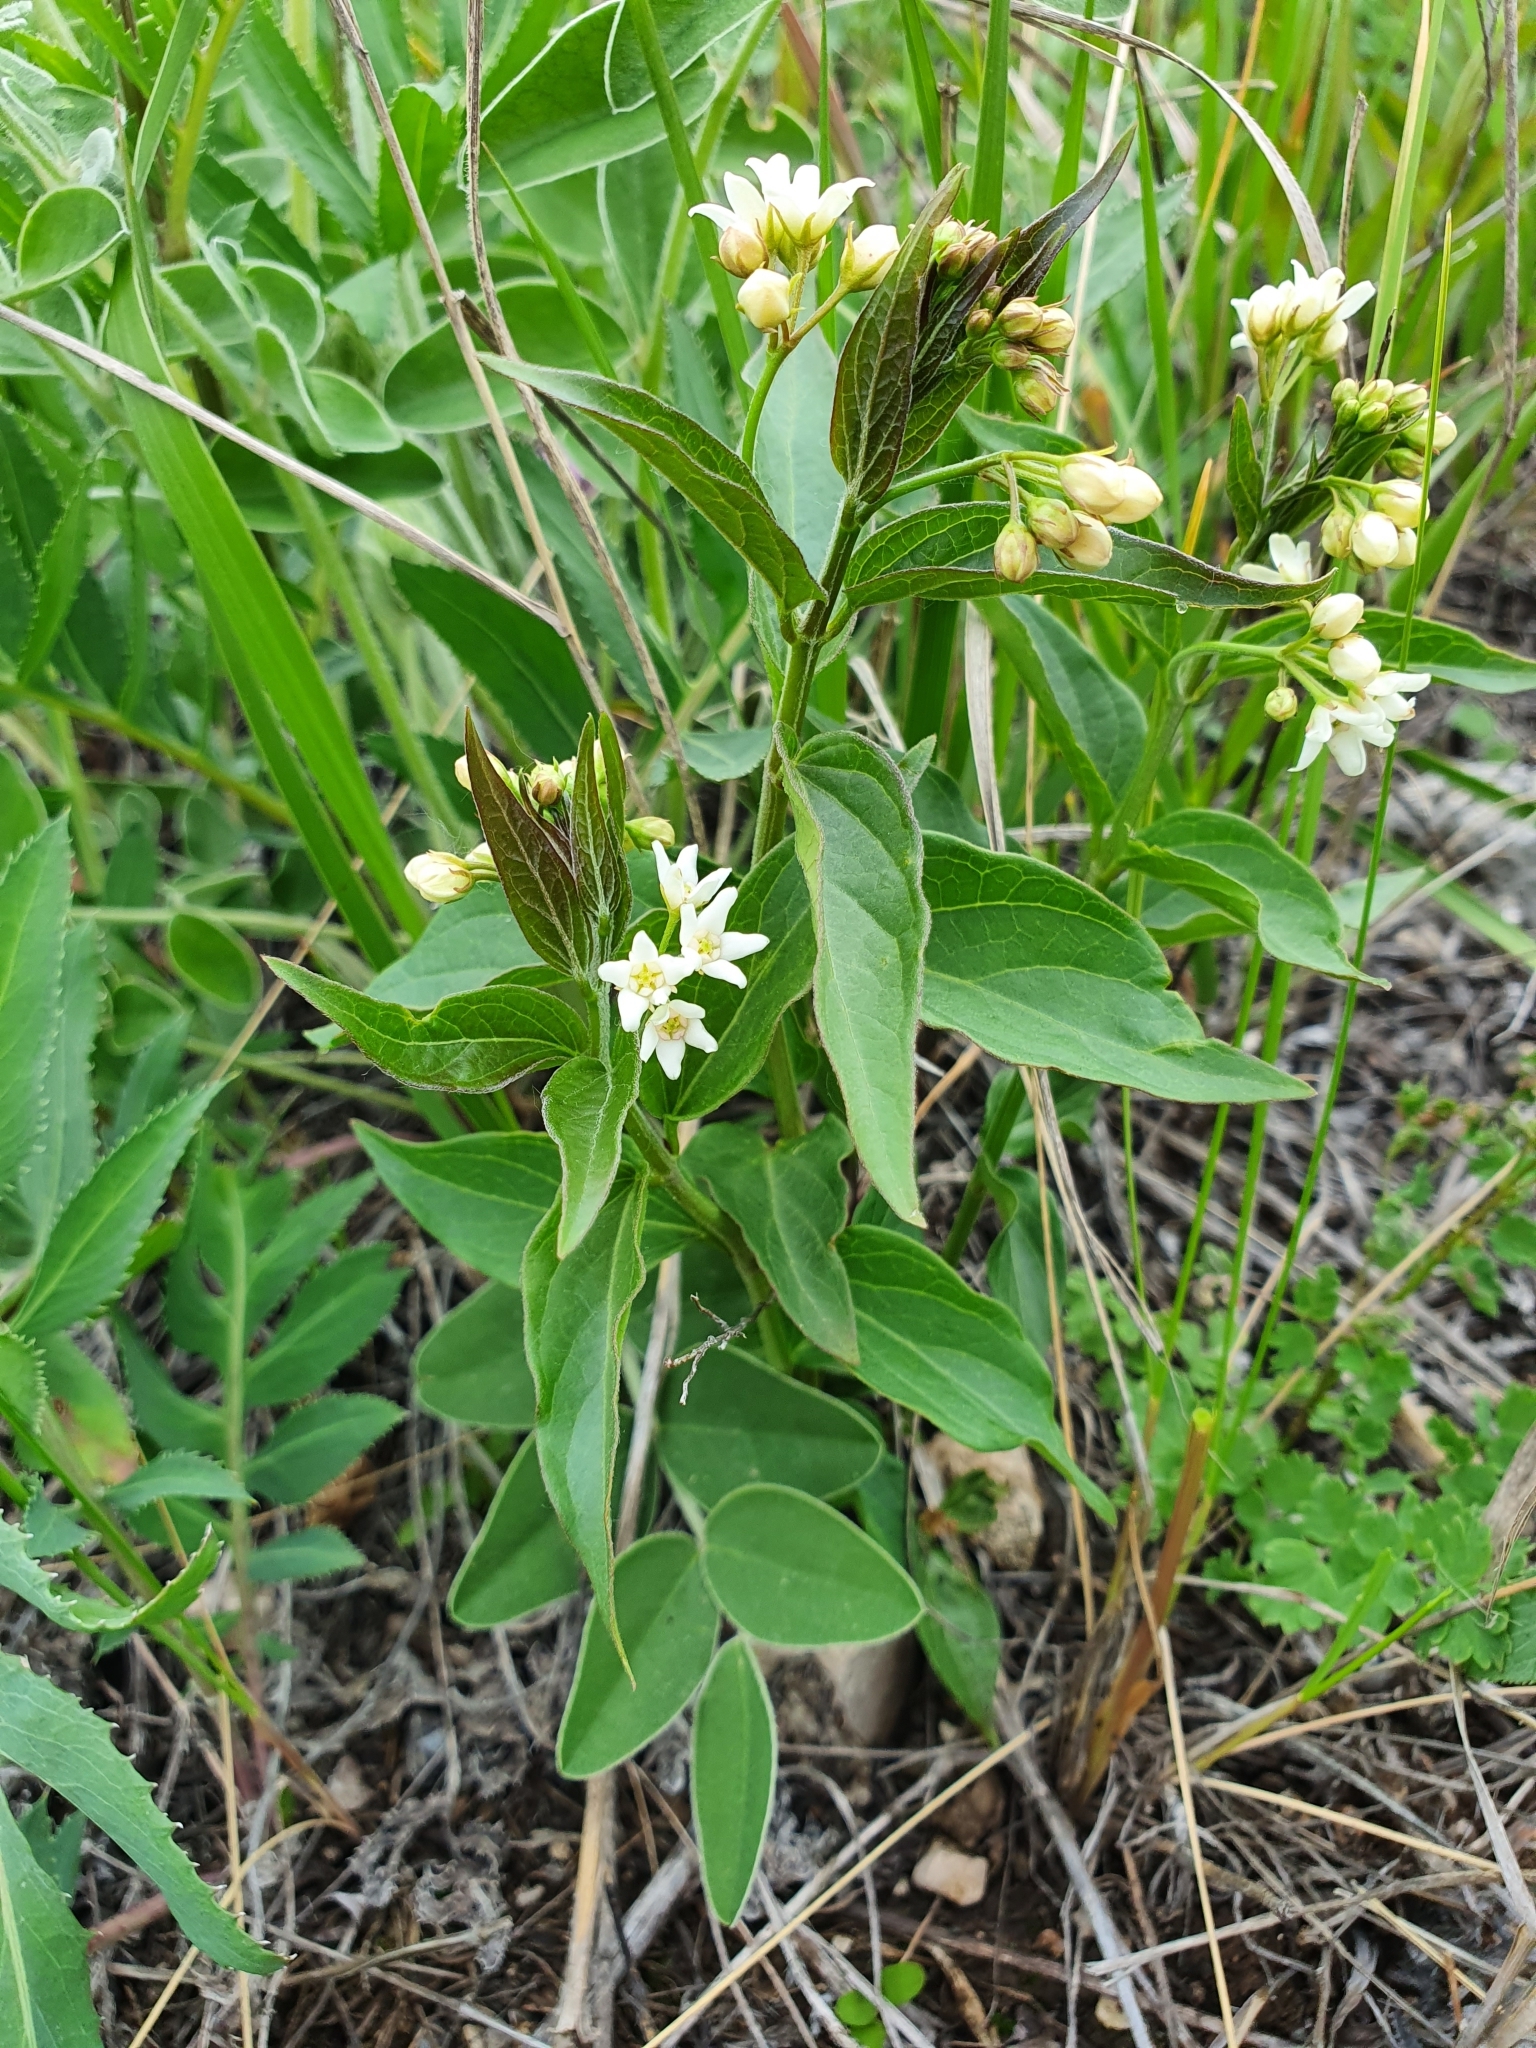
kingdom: Plantae
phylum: Tracheophyta
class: Magnoliopsida
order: Gentianales
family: Apocynaceae
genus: Vincetoxicum
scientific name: Vincetoxicum hirundinaria
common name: White swallowwort
